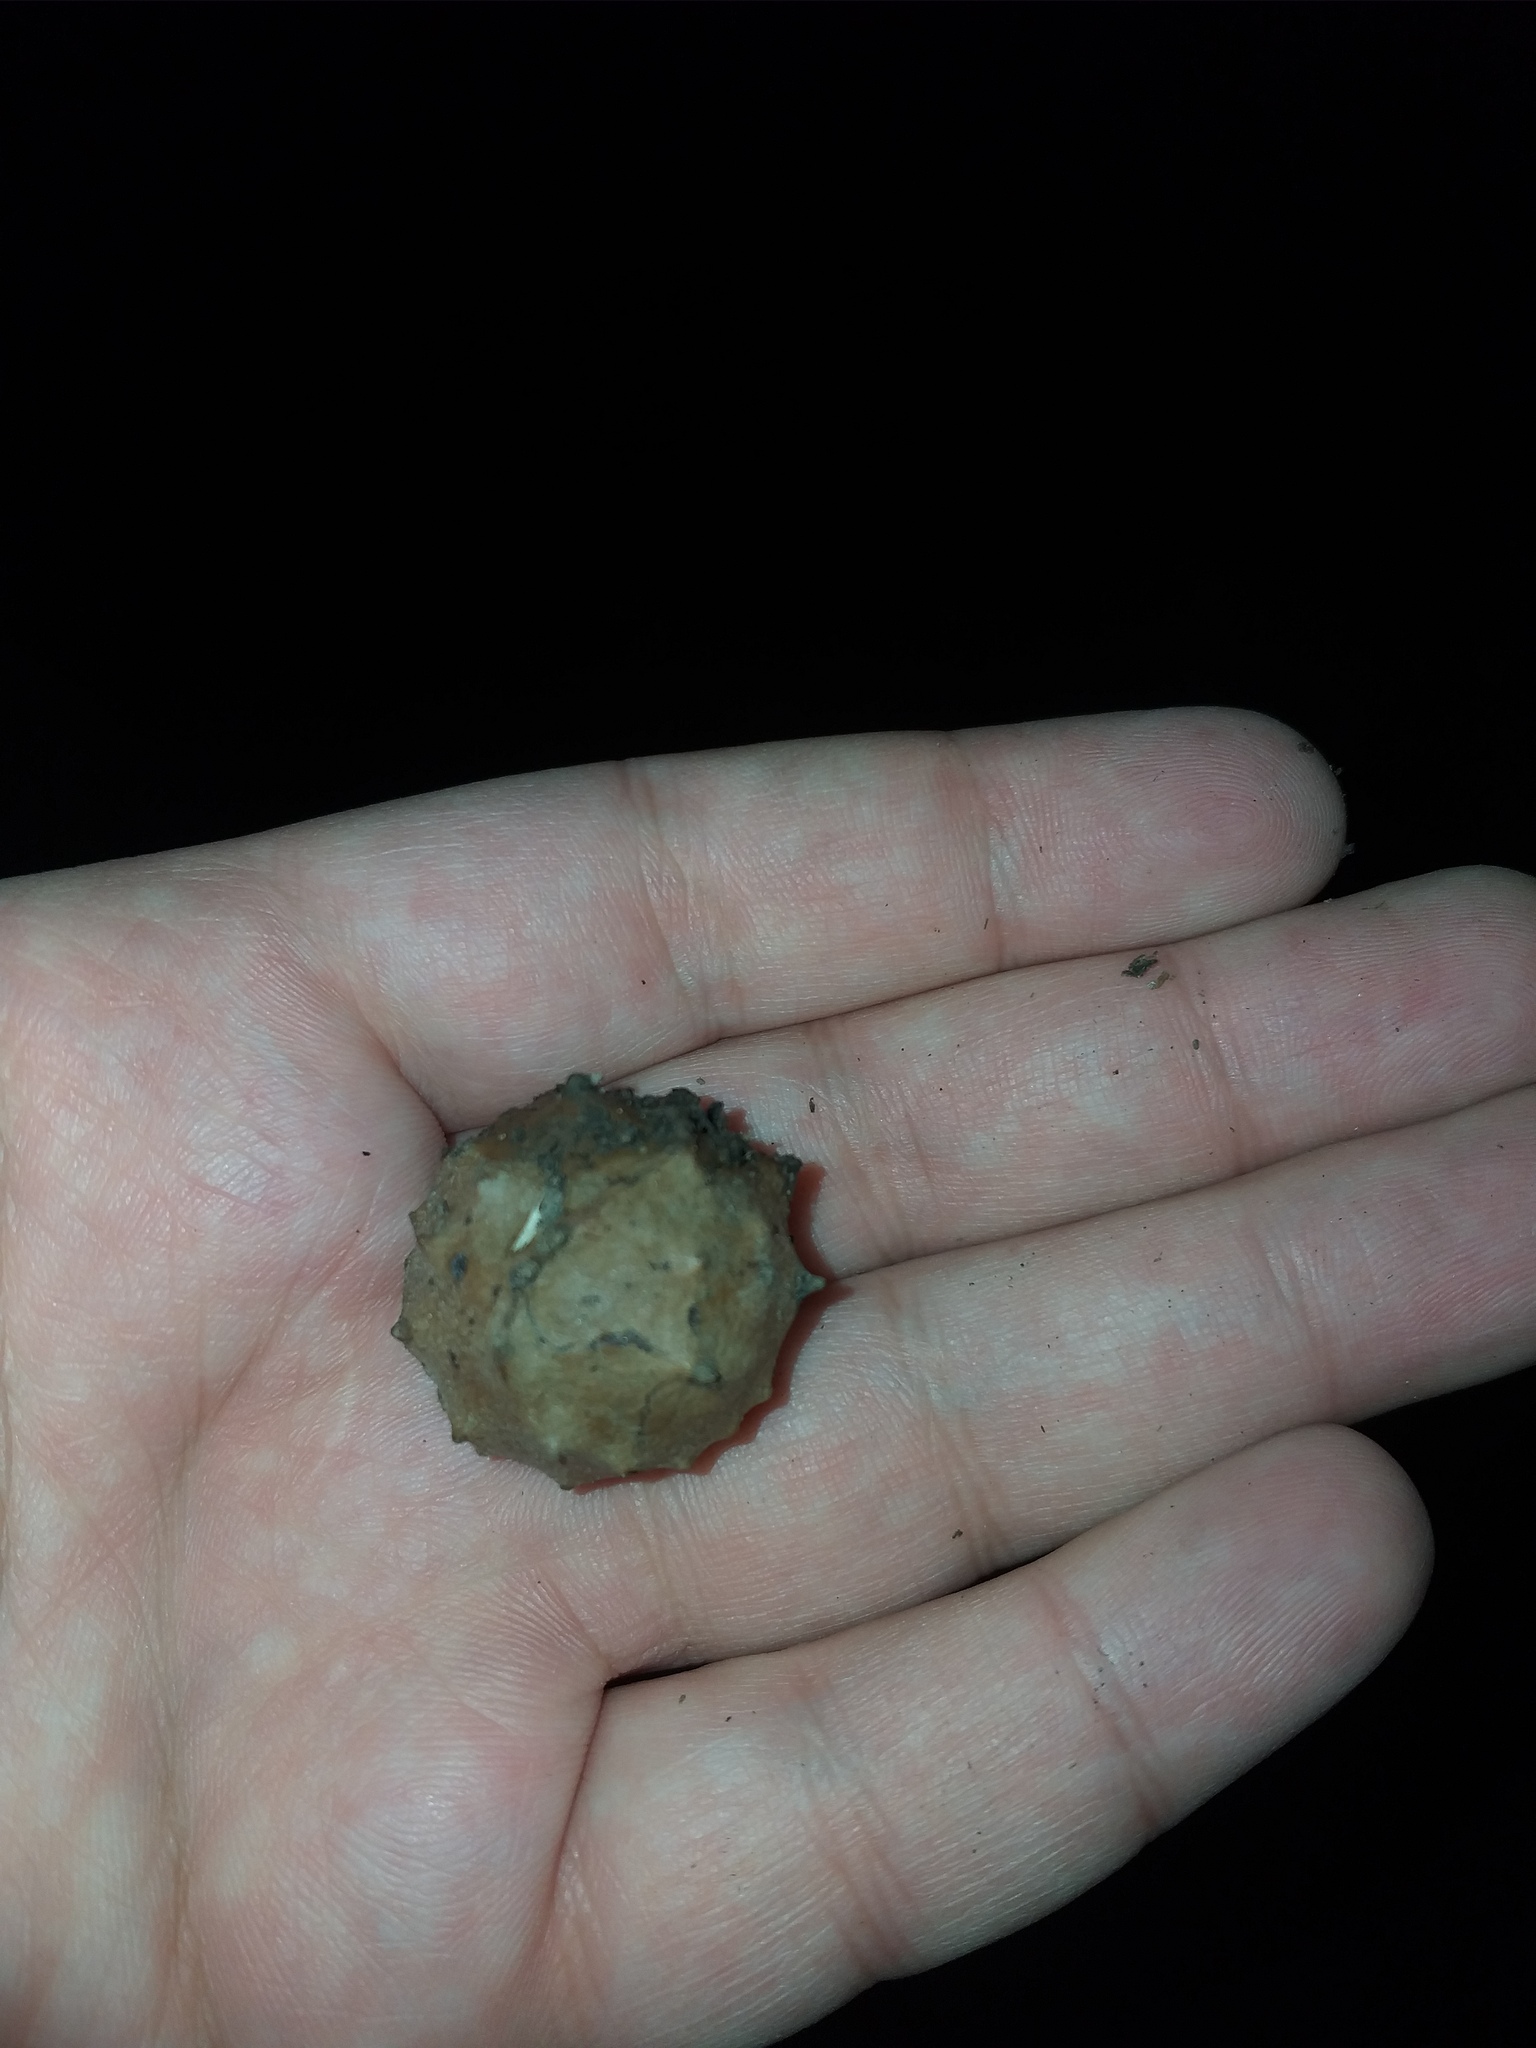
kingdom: Animalia
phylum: Arthropoda
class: Insecta
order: Hymenoptera
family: Cynipidae
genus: Andricus
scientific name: Andricus hungaricus
